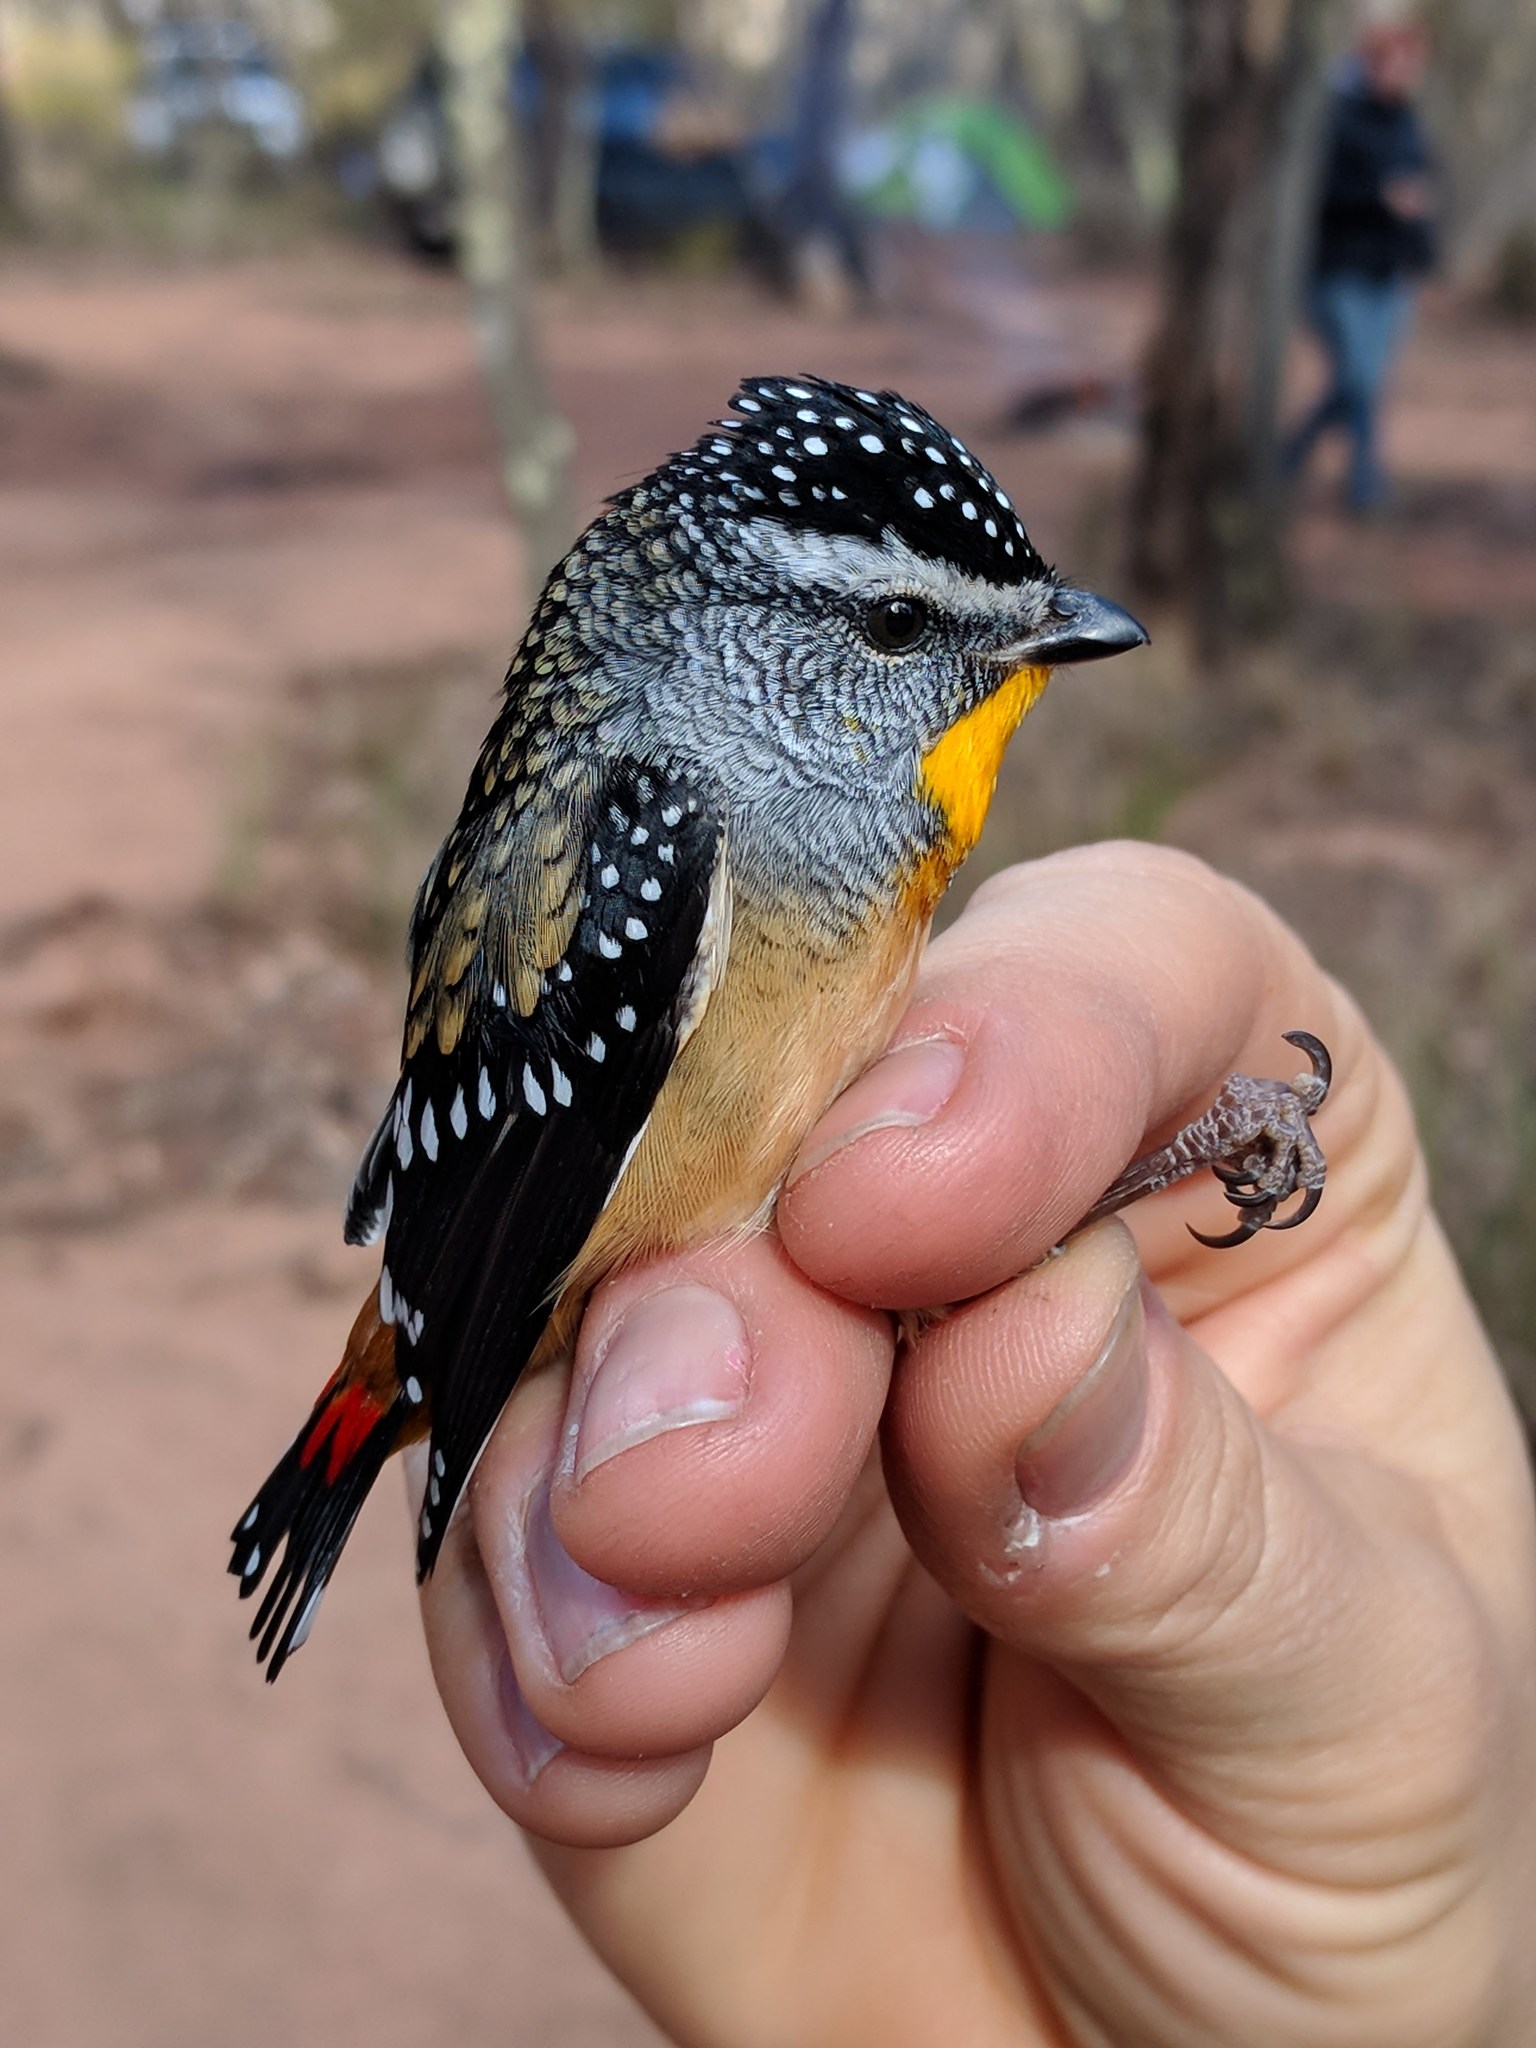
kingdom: Animalia
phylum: Chordata
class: Aves
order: Passeriformes
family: Pardalotidae
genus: Pardalotus
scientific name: Pardalotus punctatus
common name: Spotted pardalote
